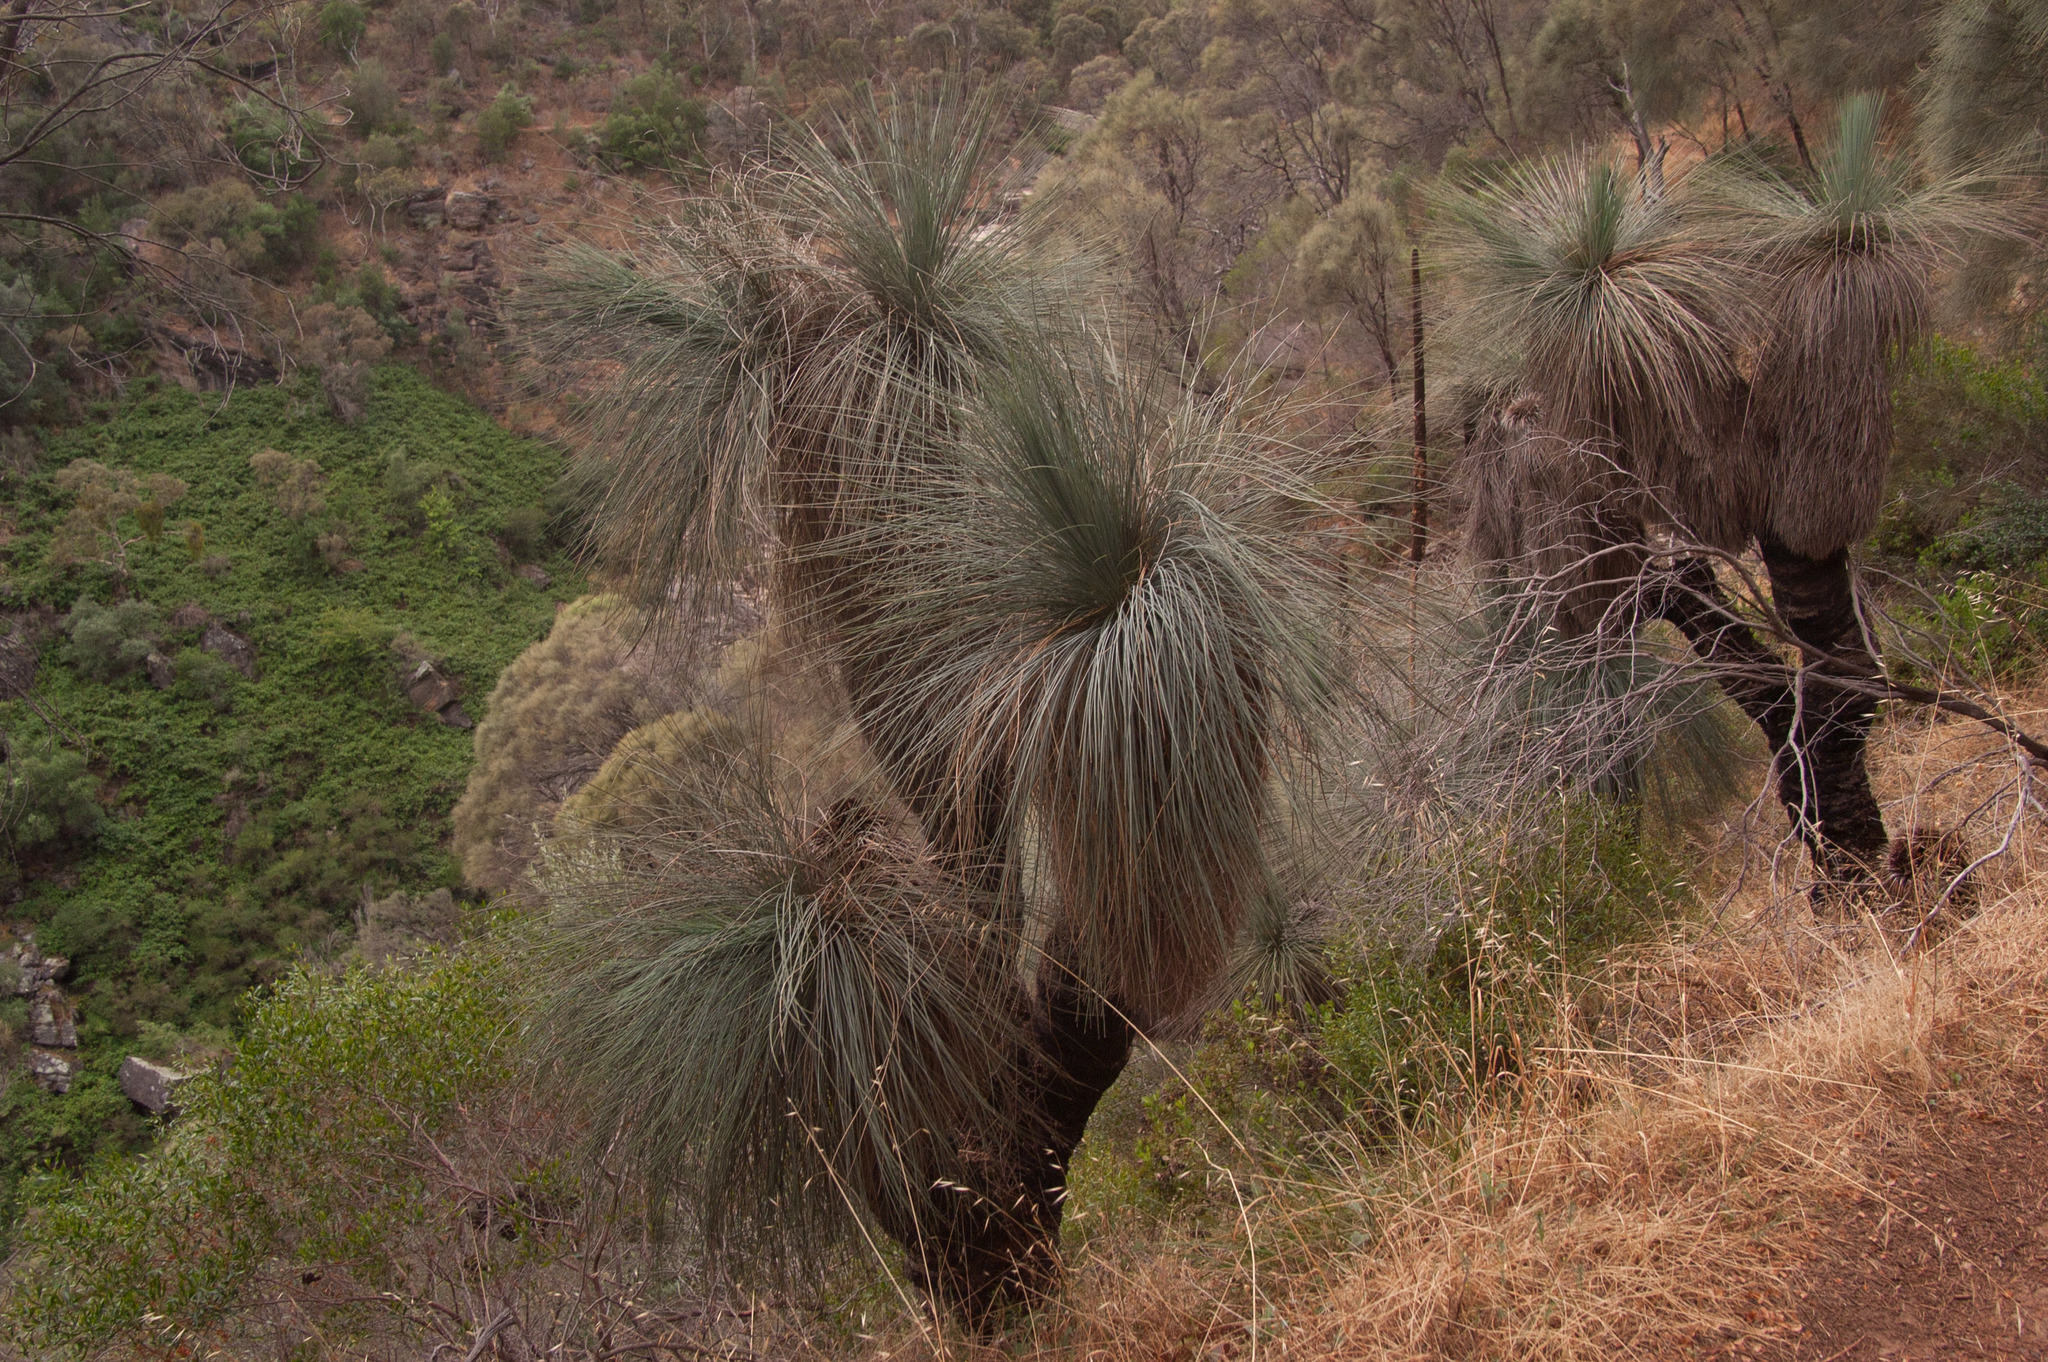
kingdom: Plantae
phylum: Tracheophyta
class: Liliopsida
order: Asparagales
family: Asphodelaceae
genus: Xanthorrhoea
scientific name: Xanthorrhoea quadrangulata
